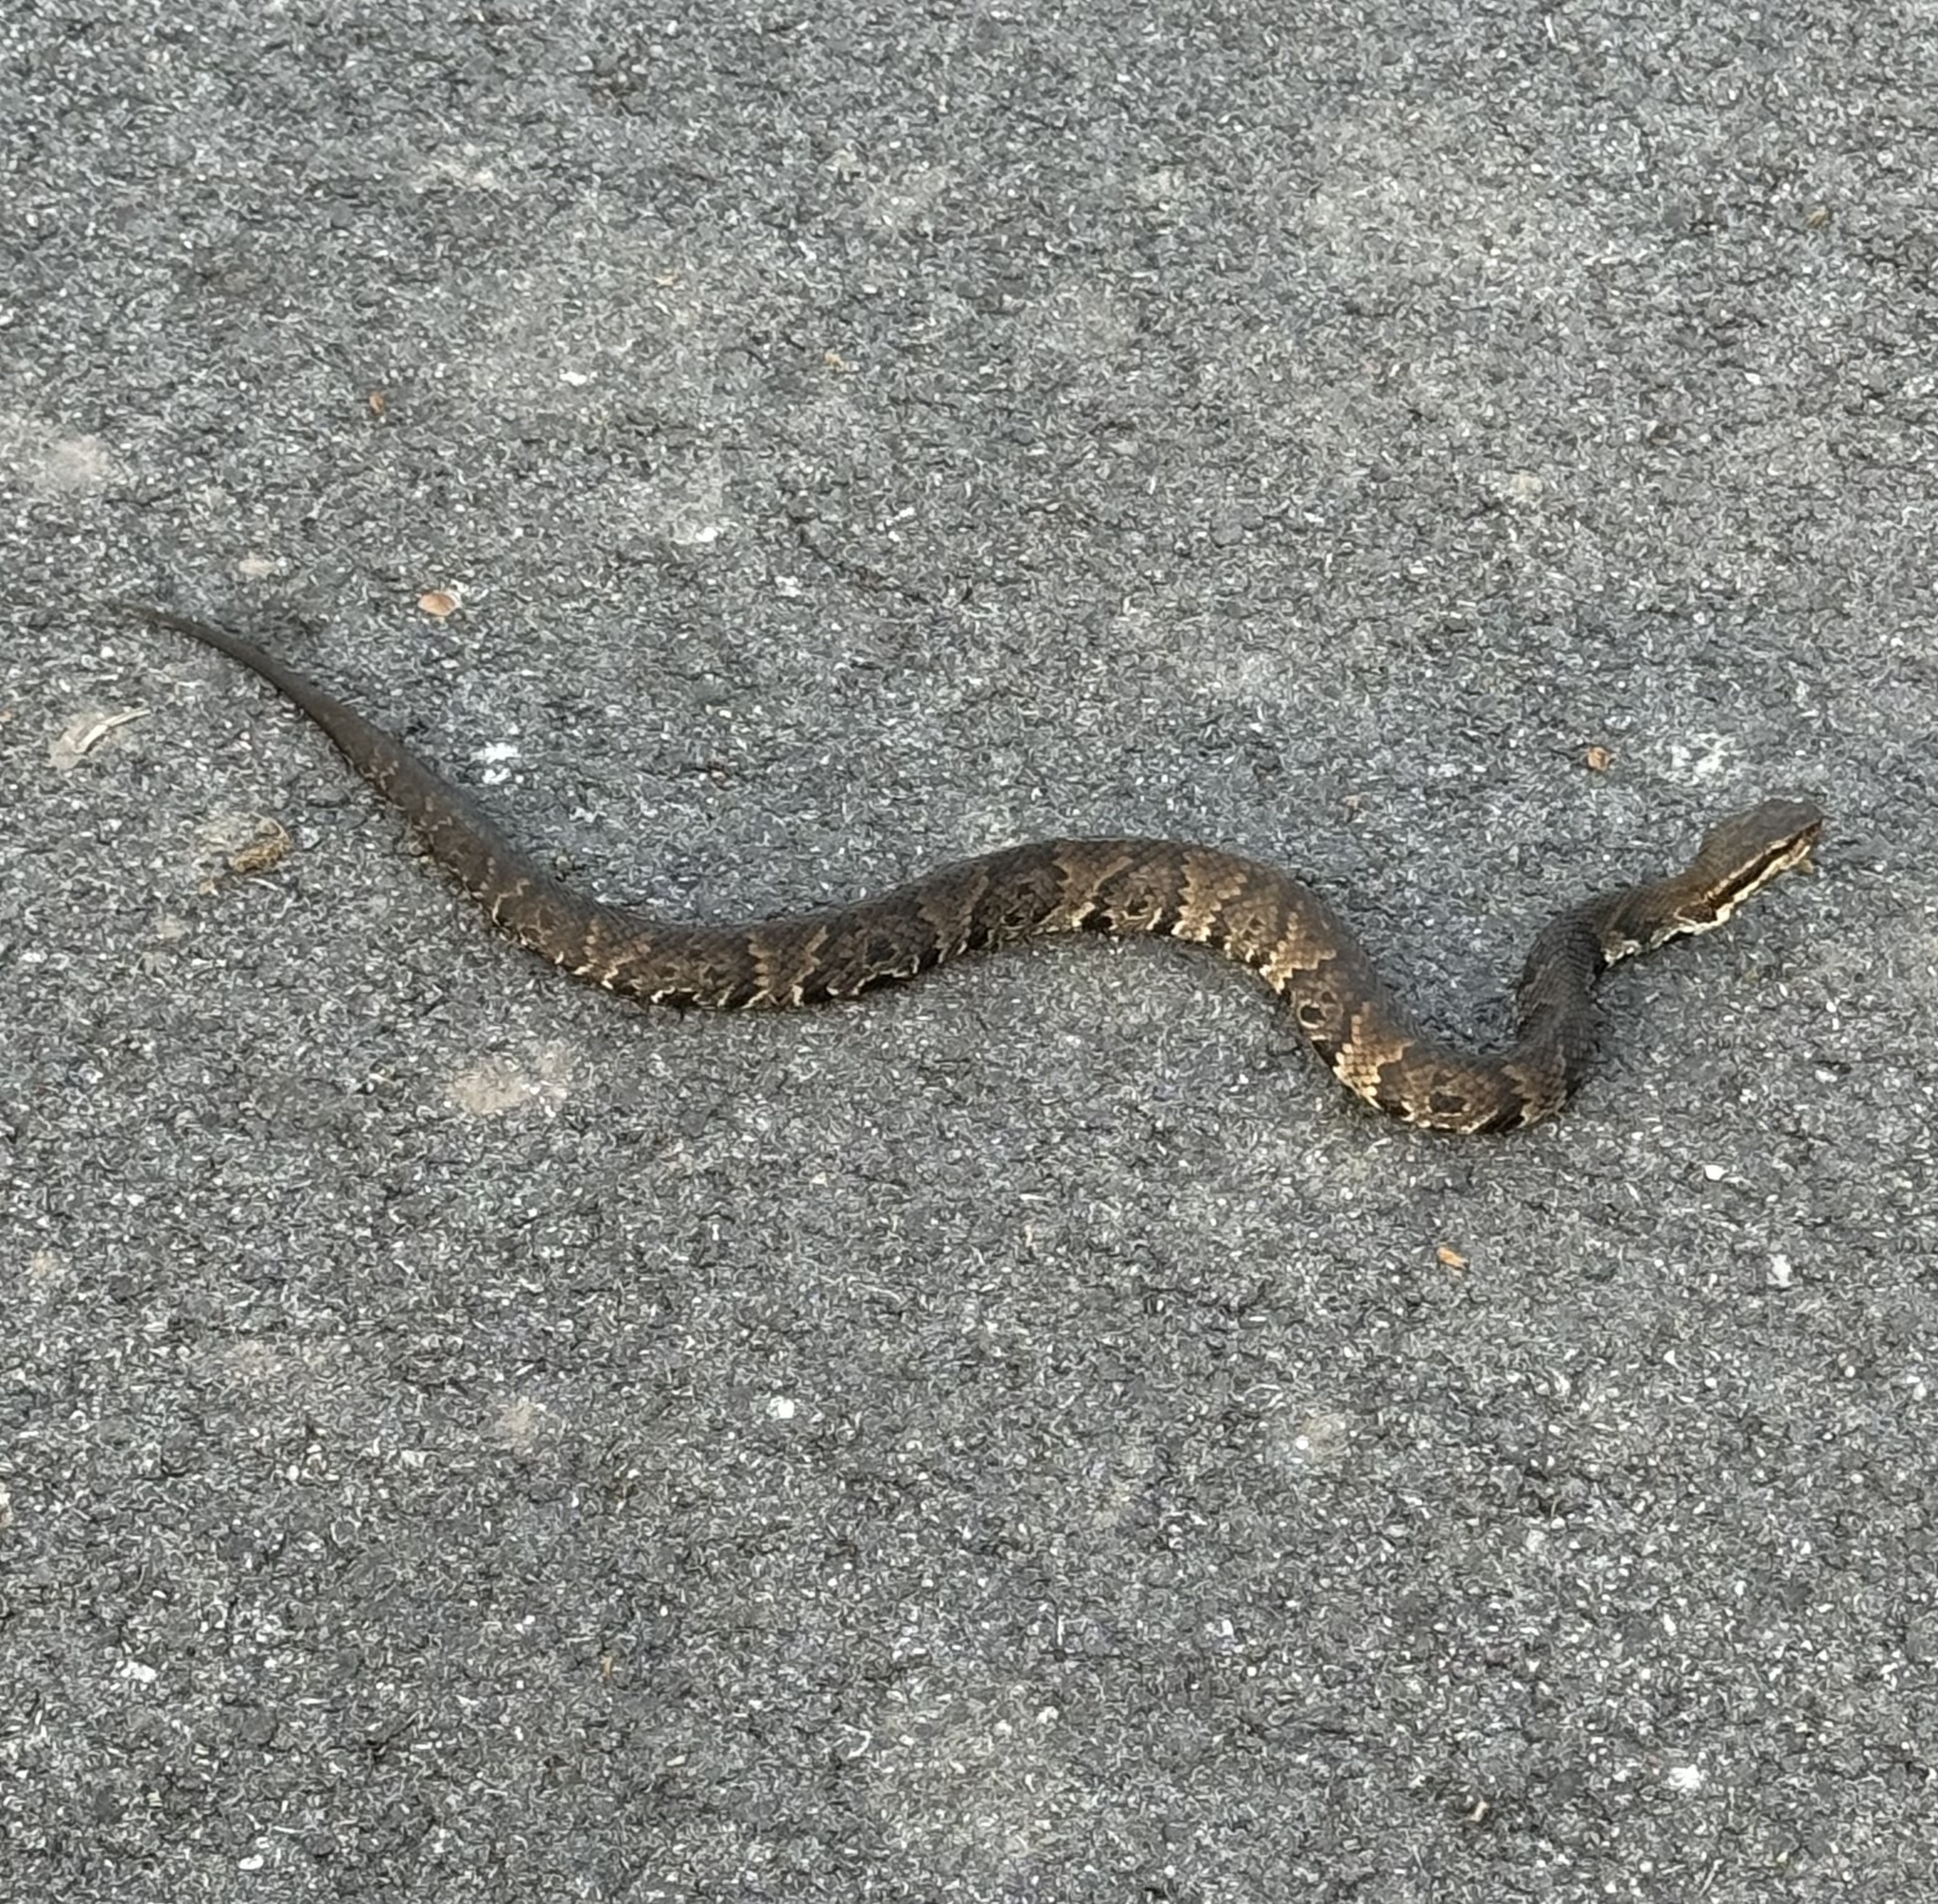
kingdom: Animalia
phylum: Chordata
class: Squamata
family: Viperidae
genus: Agkistrodon
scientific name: Agkistrodon piscivorus
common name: Cottonmouth
